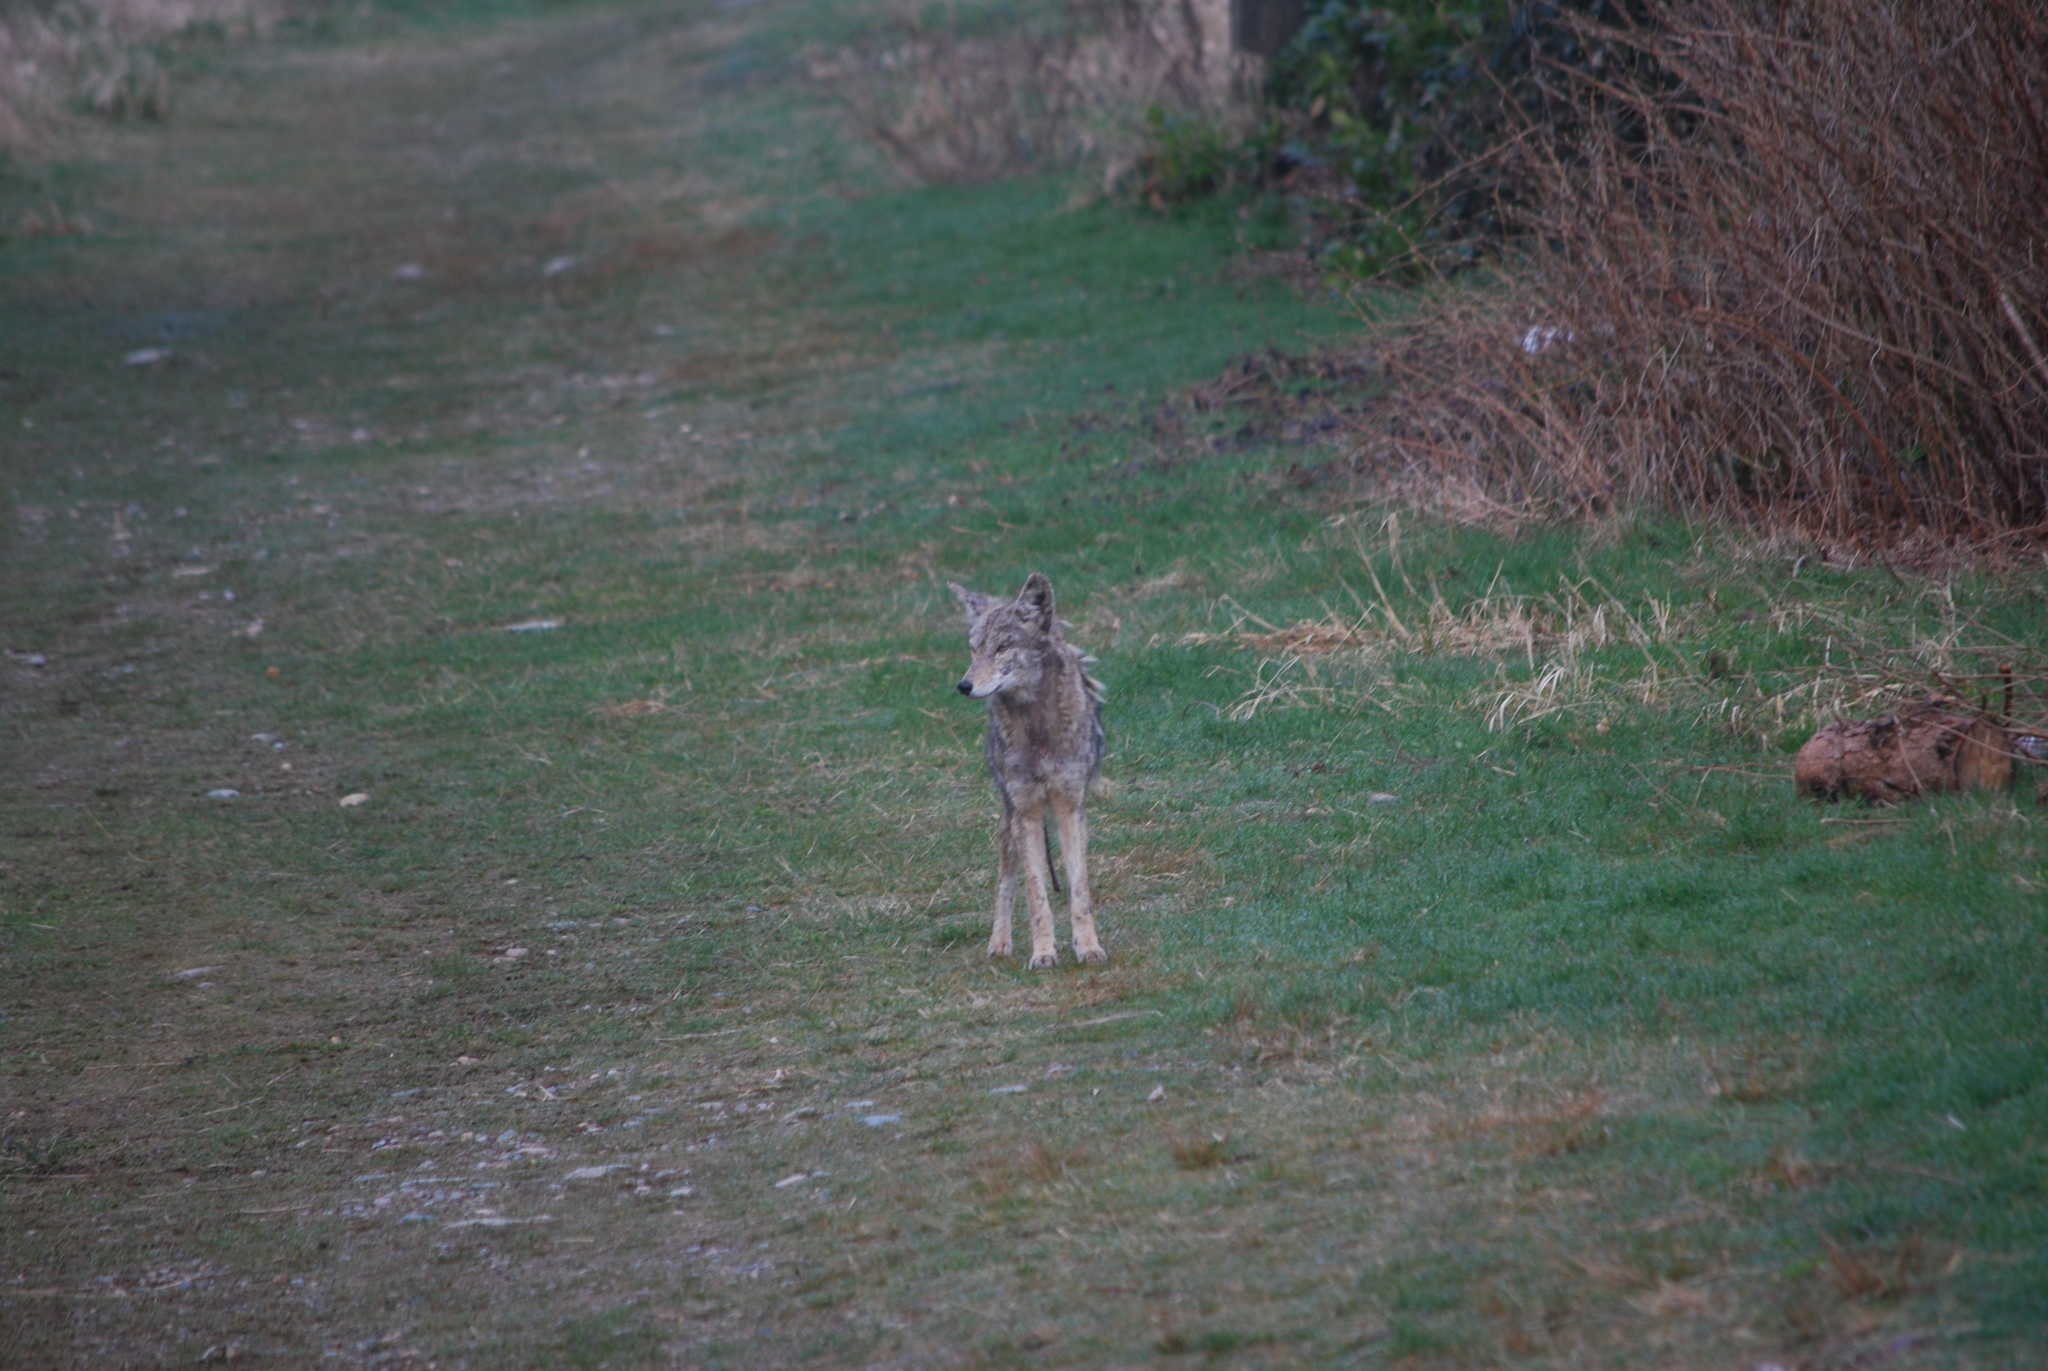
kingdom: Animalia
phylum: Chordata
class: Mammalia
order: Carnivora
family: Canidae
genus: Canis
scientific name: Canis latrans
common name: Coyote
